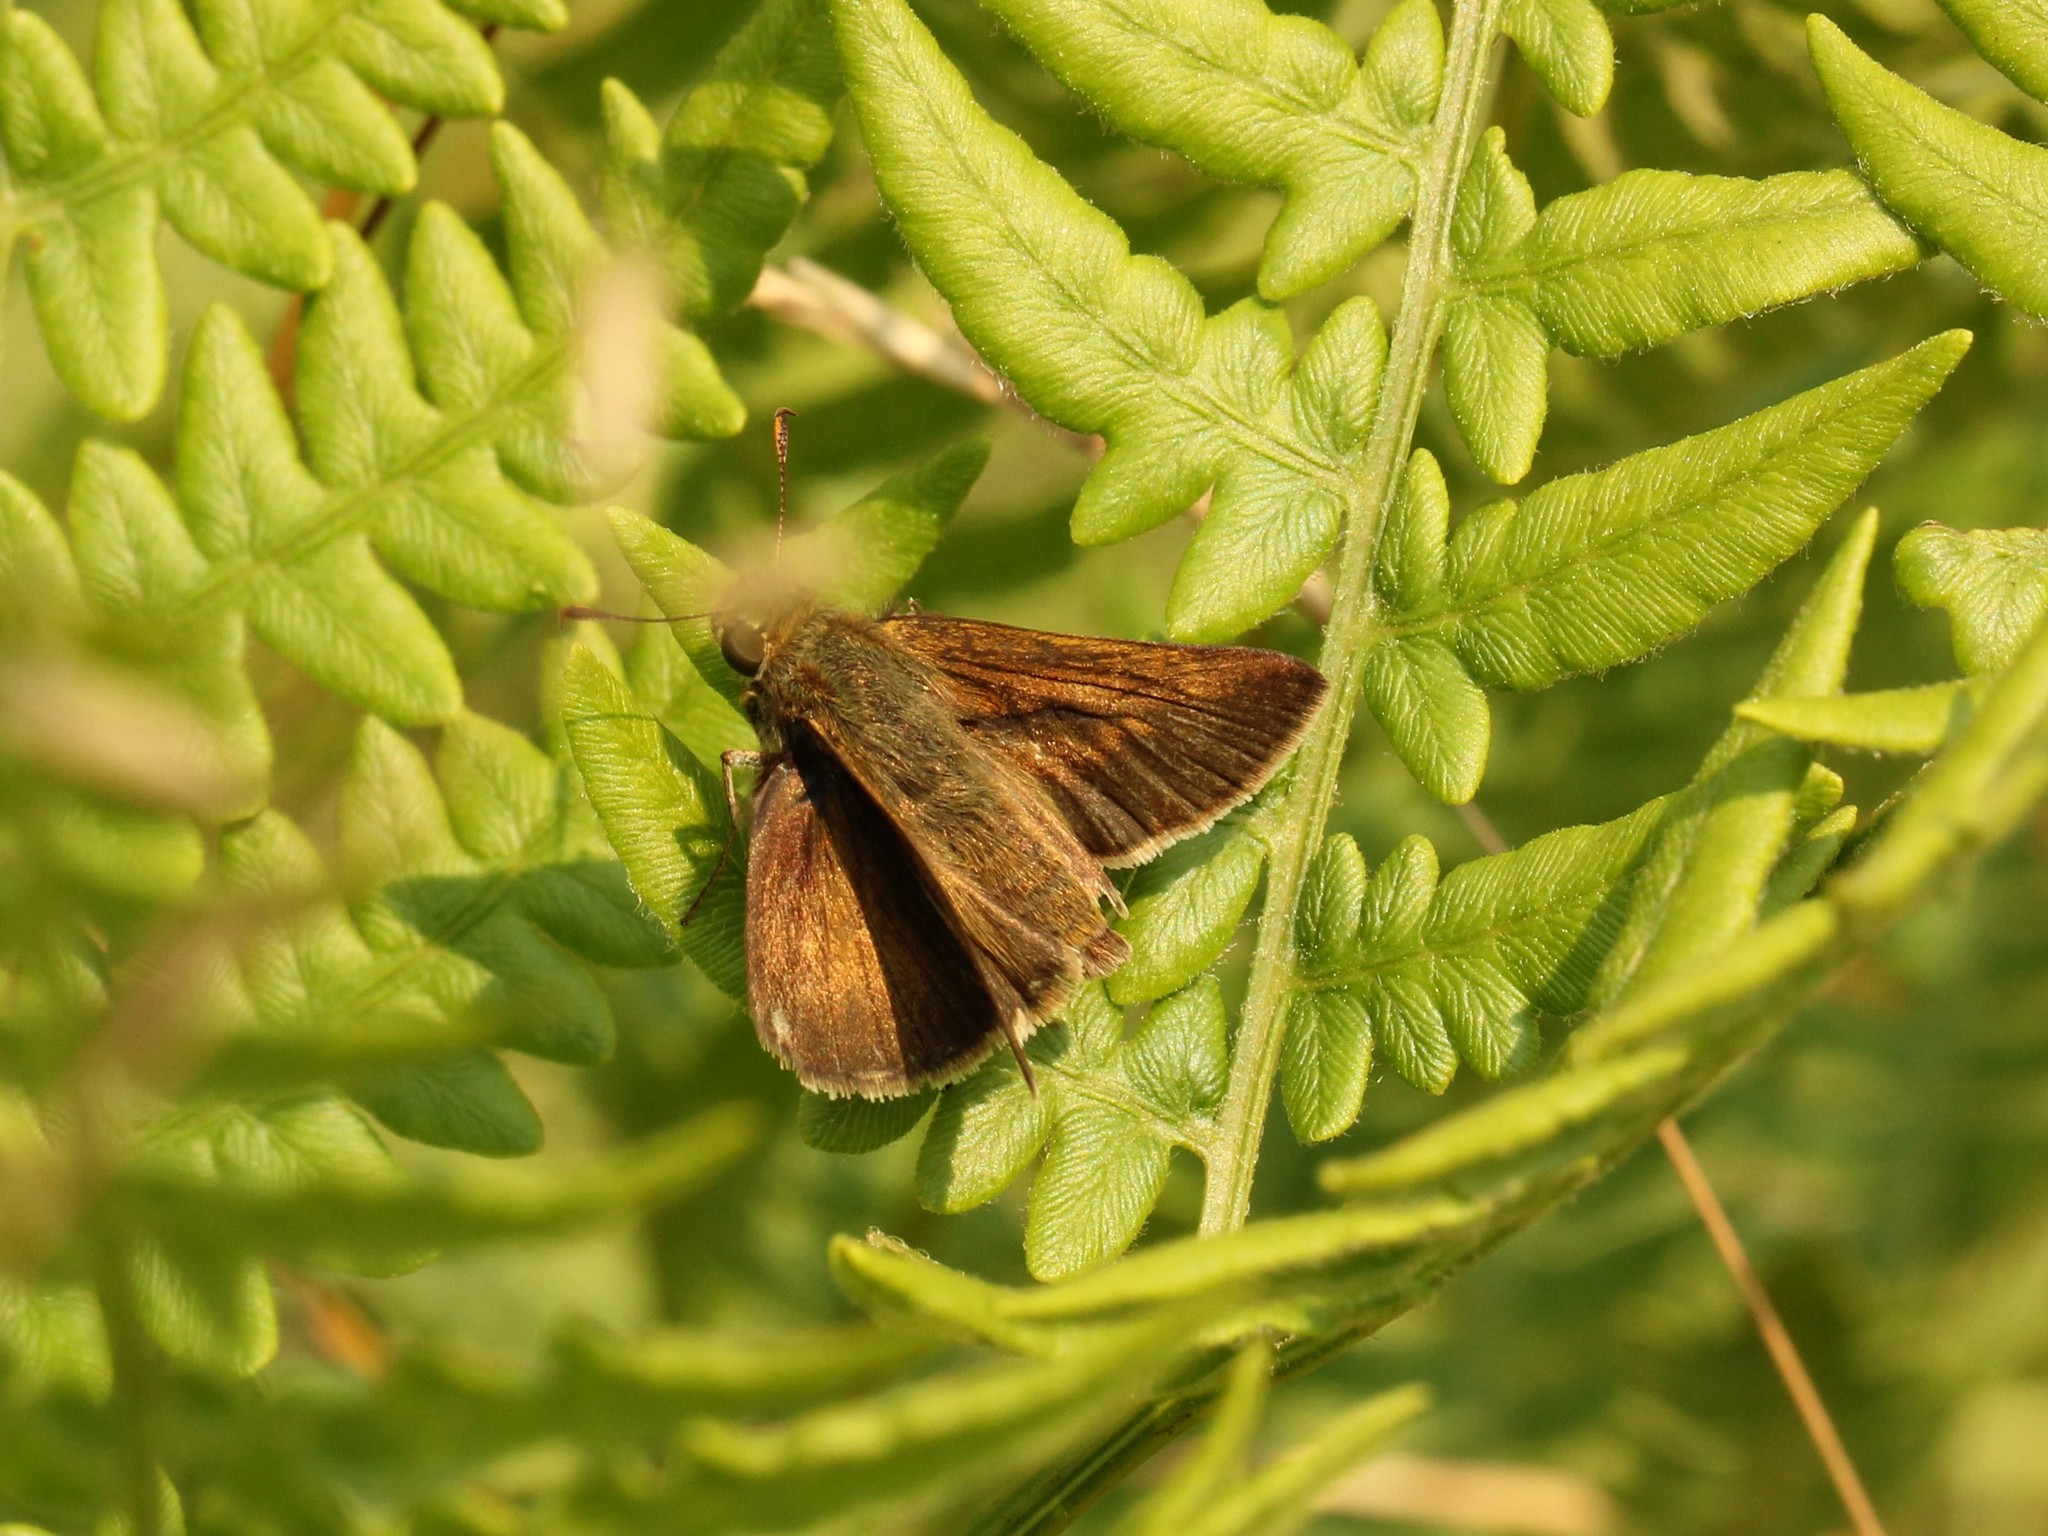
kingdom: Animalia
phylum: Arthropoda
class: Insecta
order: Lepidoptera
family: Hesperiidae
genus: Euphyes
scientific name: Euphyes vestris
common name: Dun skipper
